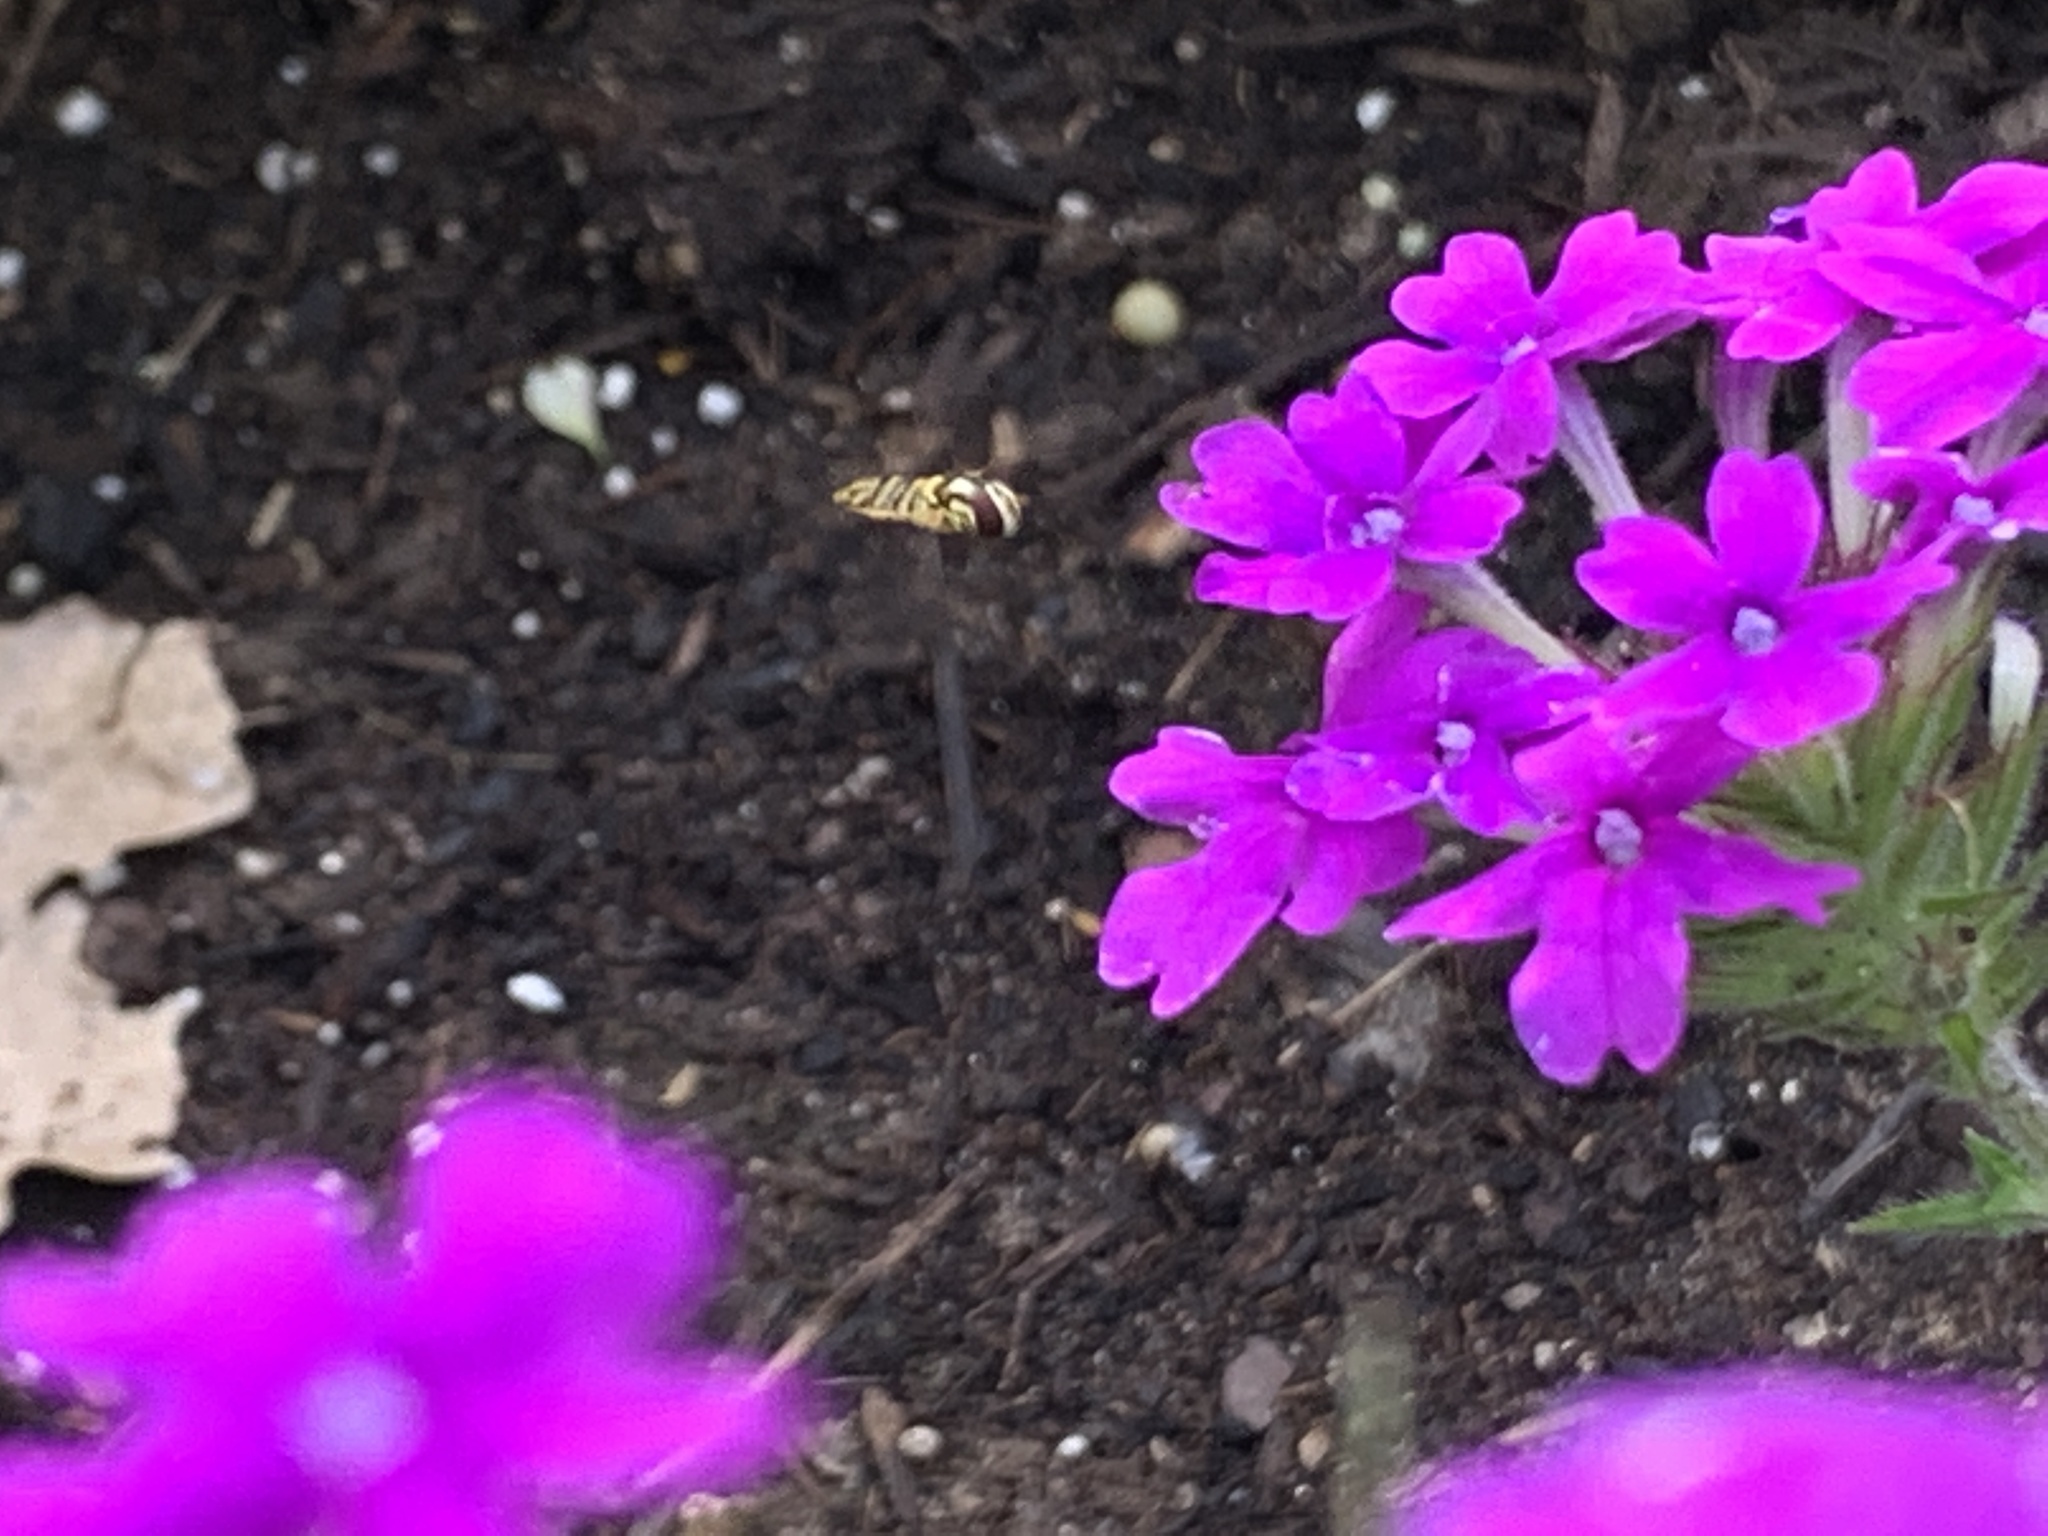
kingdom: Animalia
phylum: Arthropoda
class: Insecta
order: Diptera
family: Syrphidae
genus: Allograpta
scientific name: Allograpta obliqua
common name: Common oblique syrphid
